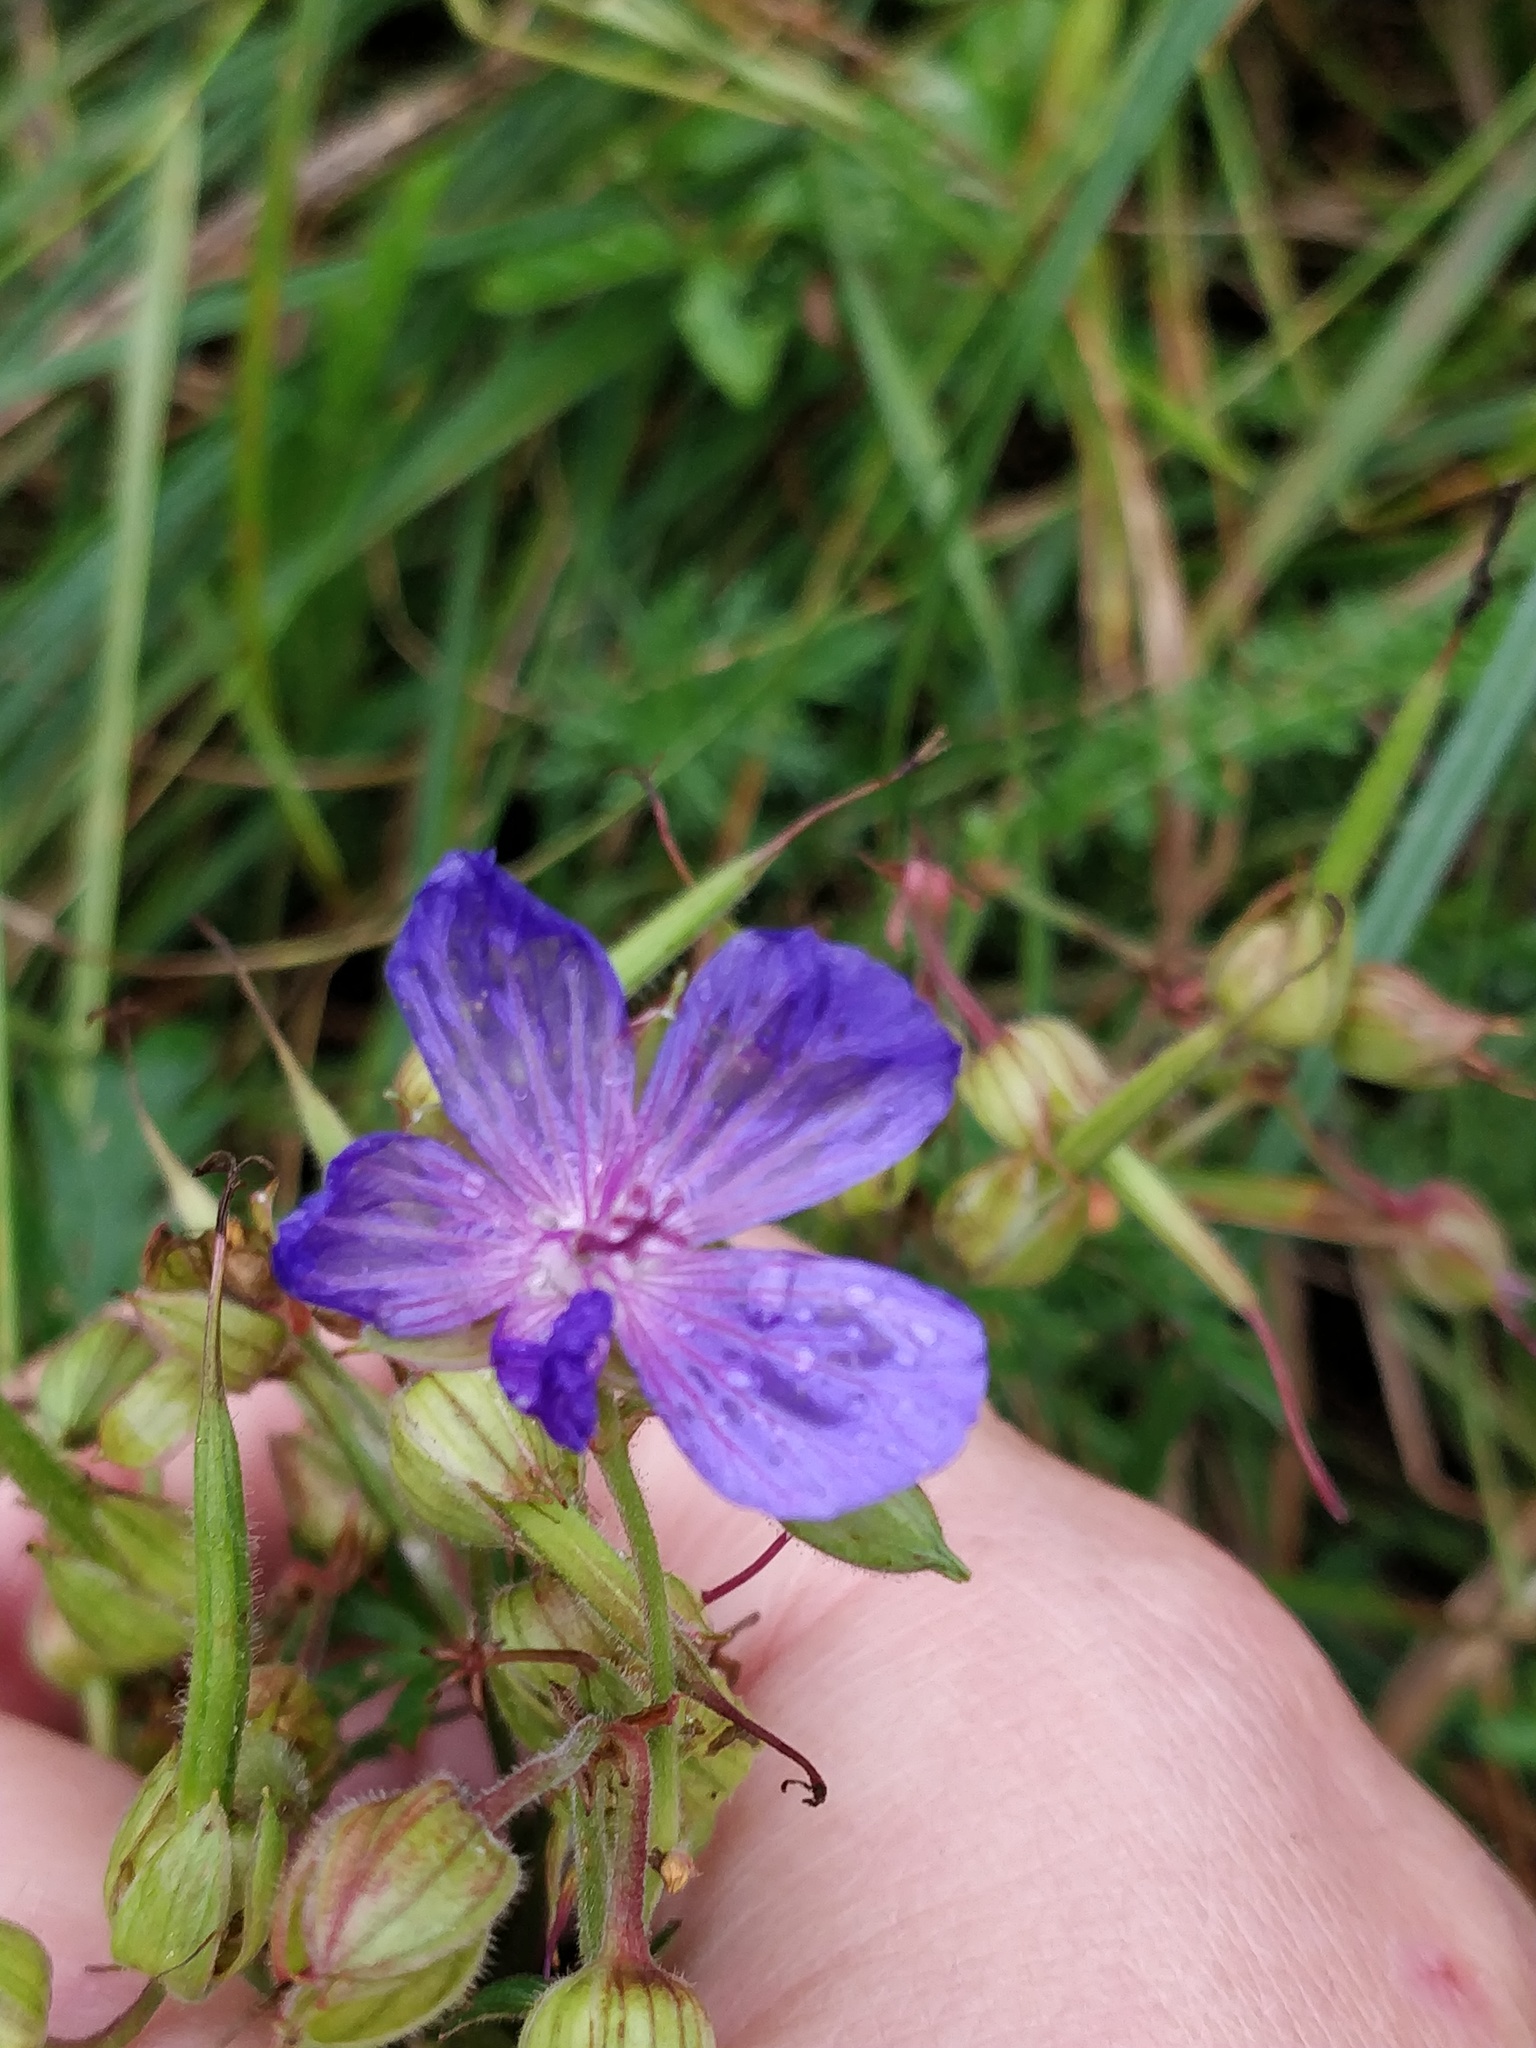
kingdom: Plantae
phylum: Tracheophyta
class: Magnoliopsida
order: Geraniales
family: Geraniaceae
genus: Geranium
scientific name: Geranium pratense
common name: Meadow crane's-bill
